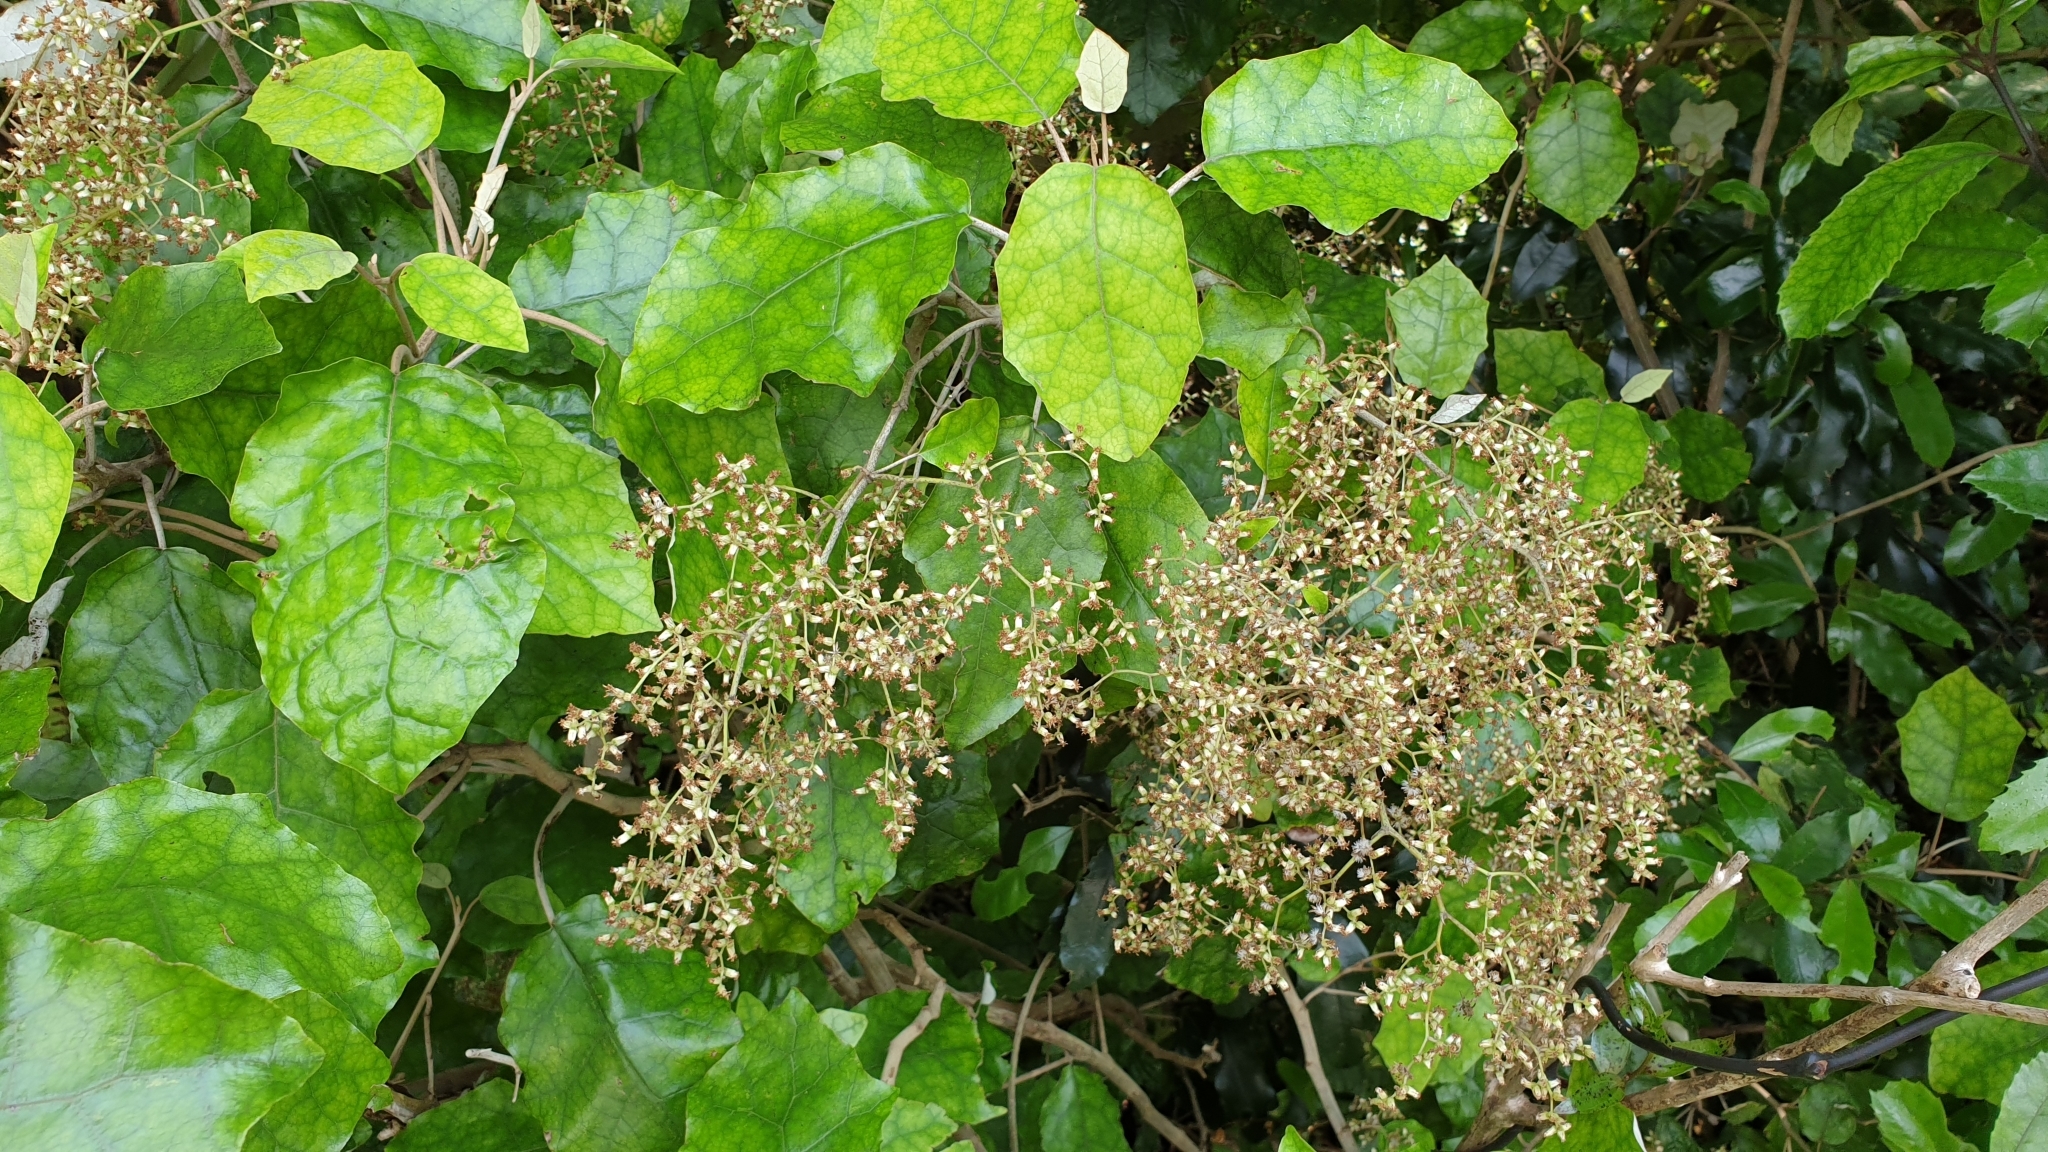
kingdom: Plantae
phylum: Tracheophyta
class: Magnoliopsida
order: Asterales
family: Asteraceae
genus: Brachyglottis
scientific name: Brachyglottis repanda
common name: Hedge ragwort
